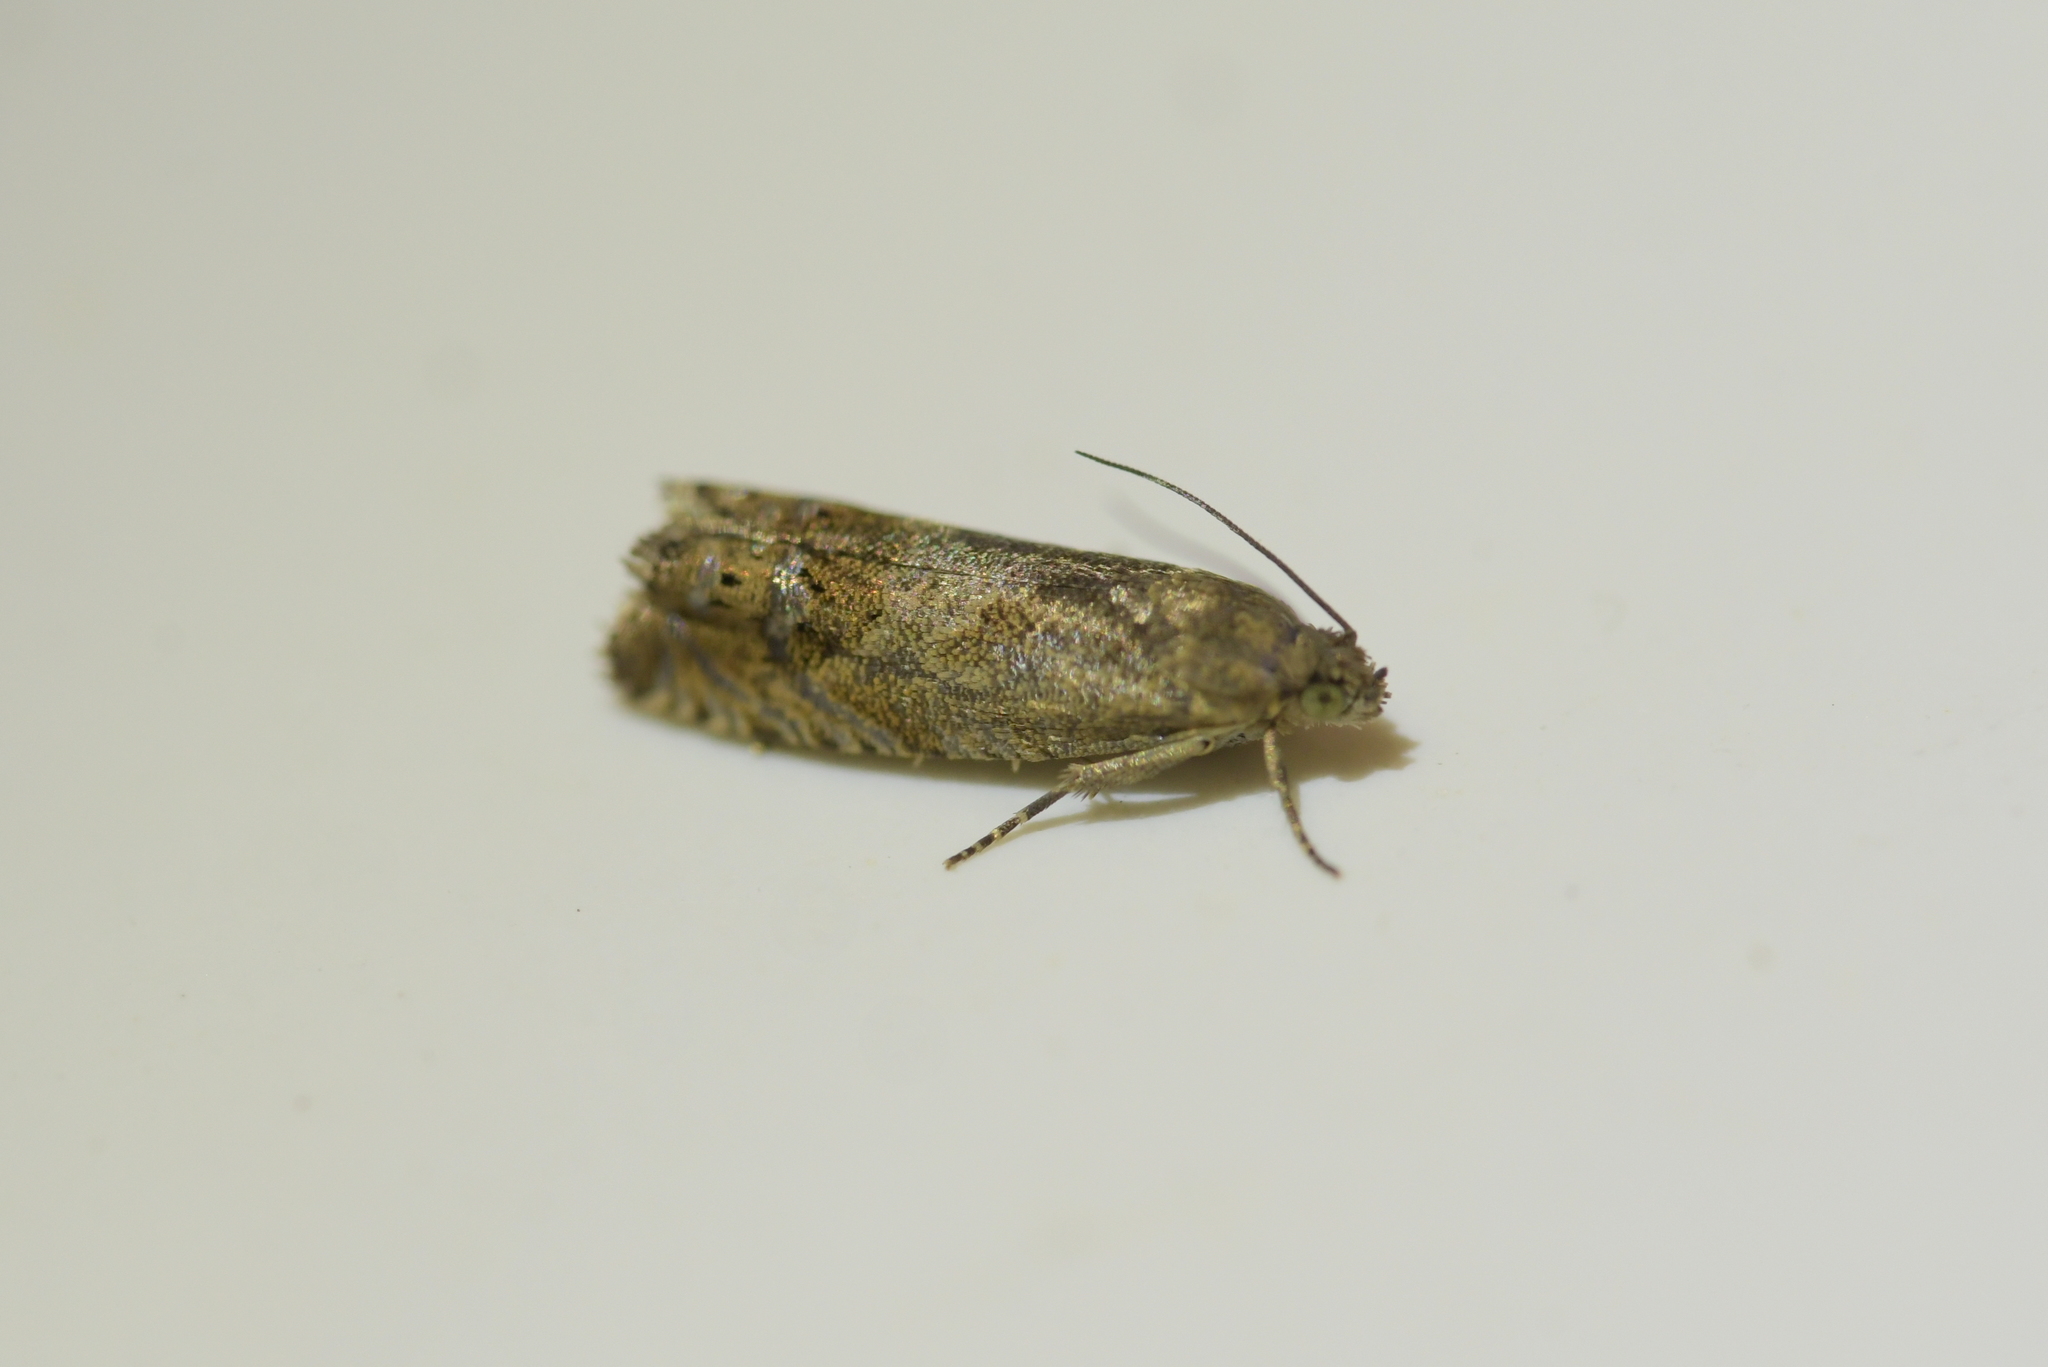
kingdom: Animalia
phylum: Arthropoda
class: Insecta
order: Lepidoptera
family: Tortricidae
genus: Cydia
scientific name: Cydia succedana
